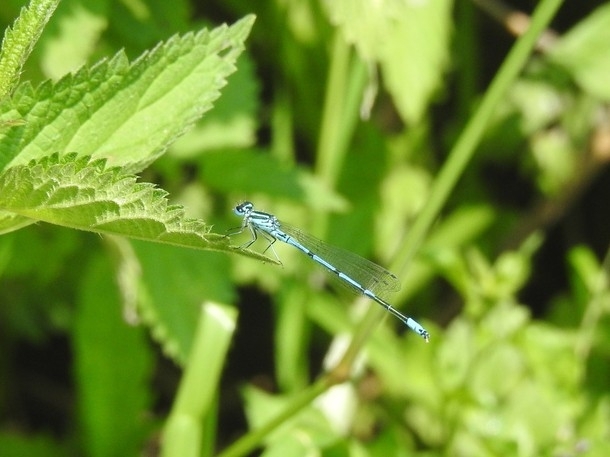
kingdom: Animalia
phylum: Arthropoda
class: Insecta
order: Odonata
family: Coenagrionidae
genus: Coenagrion
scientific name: Coenagrion puella
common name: Azure damselfly
